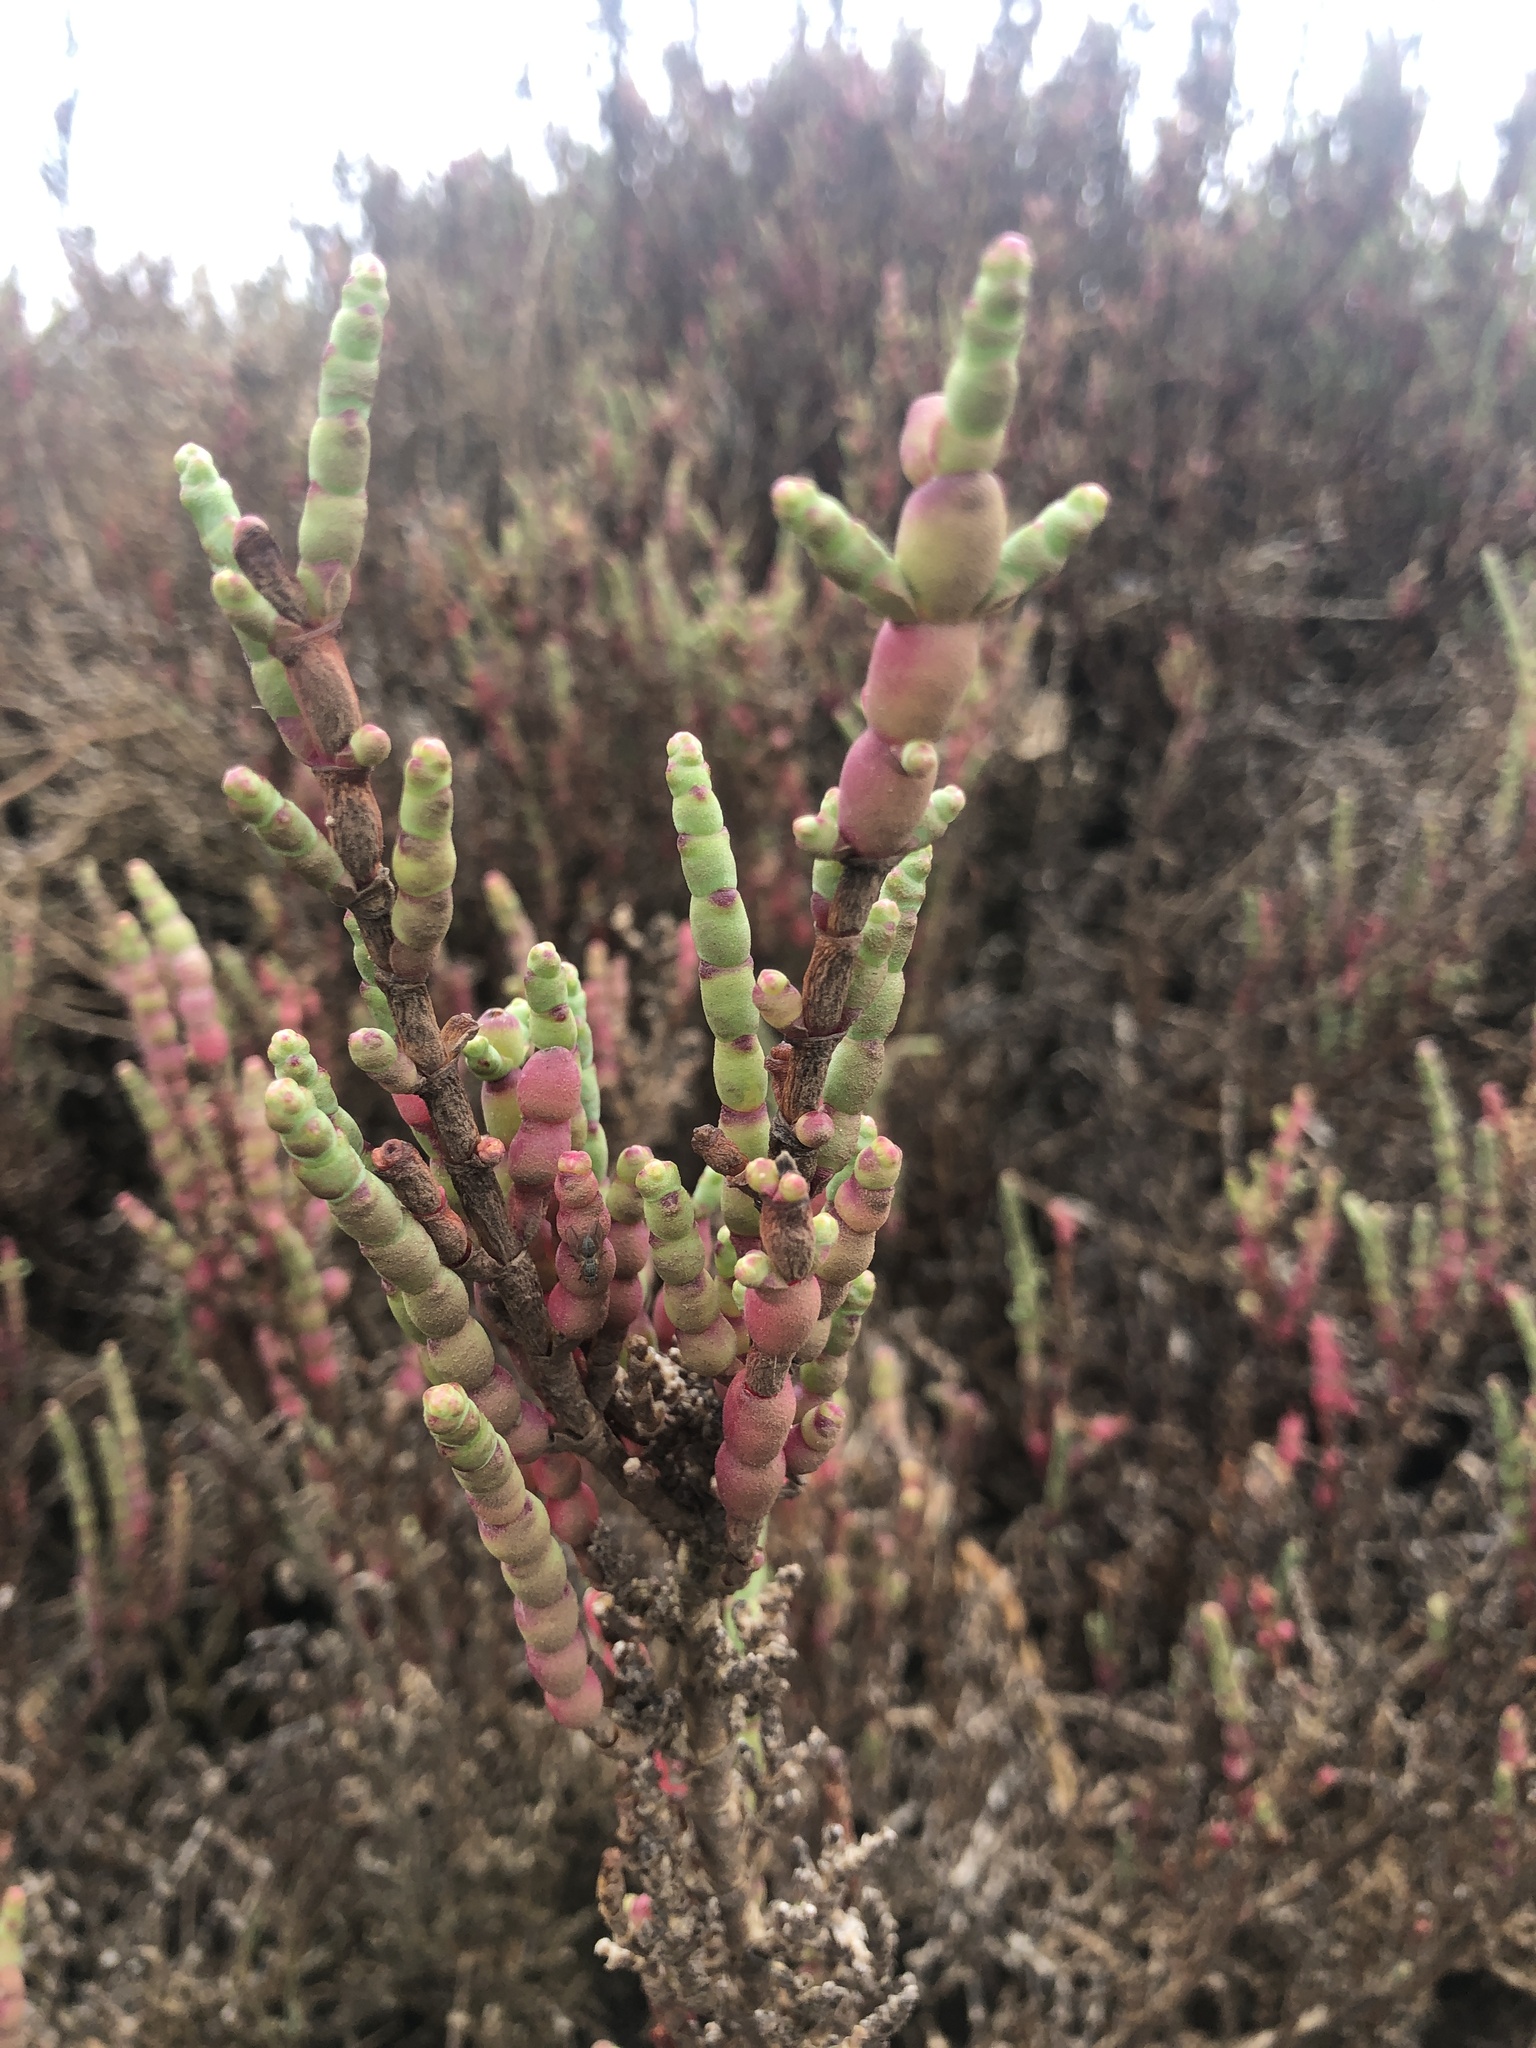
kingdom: Plantae
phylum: Tracheophyta
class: Magnoliopsida
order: Caryophyllales
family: Amaranthaceae
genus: Salicornia
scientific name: Salicornia neei
